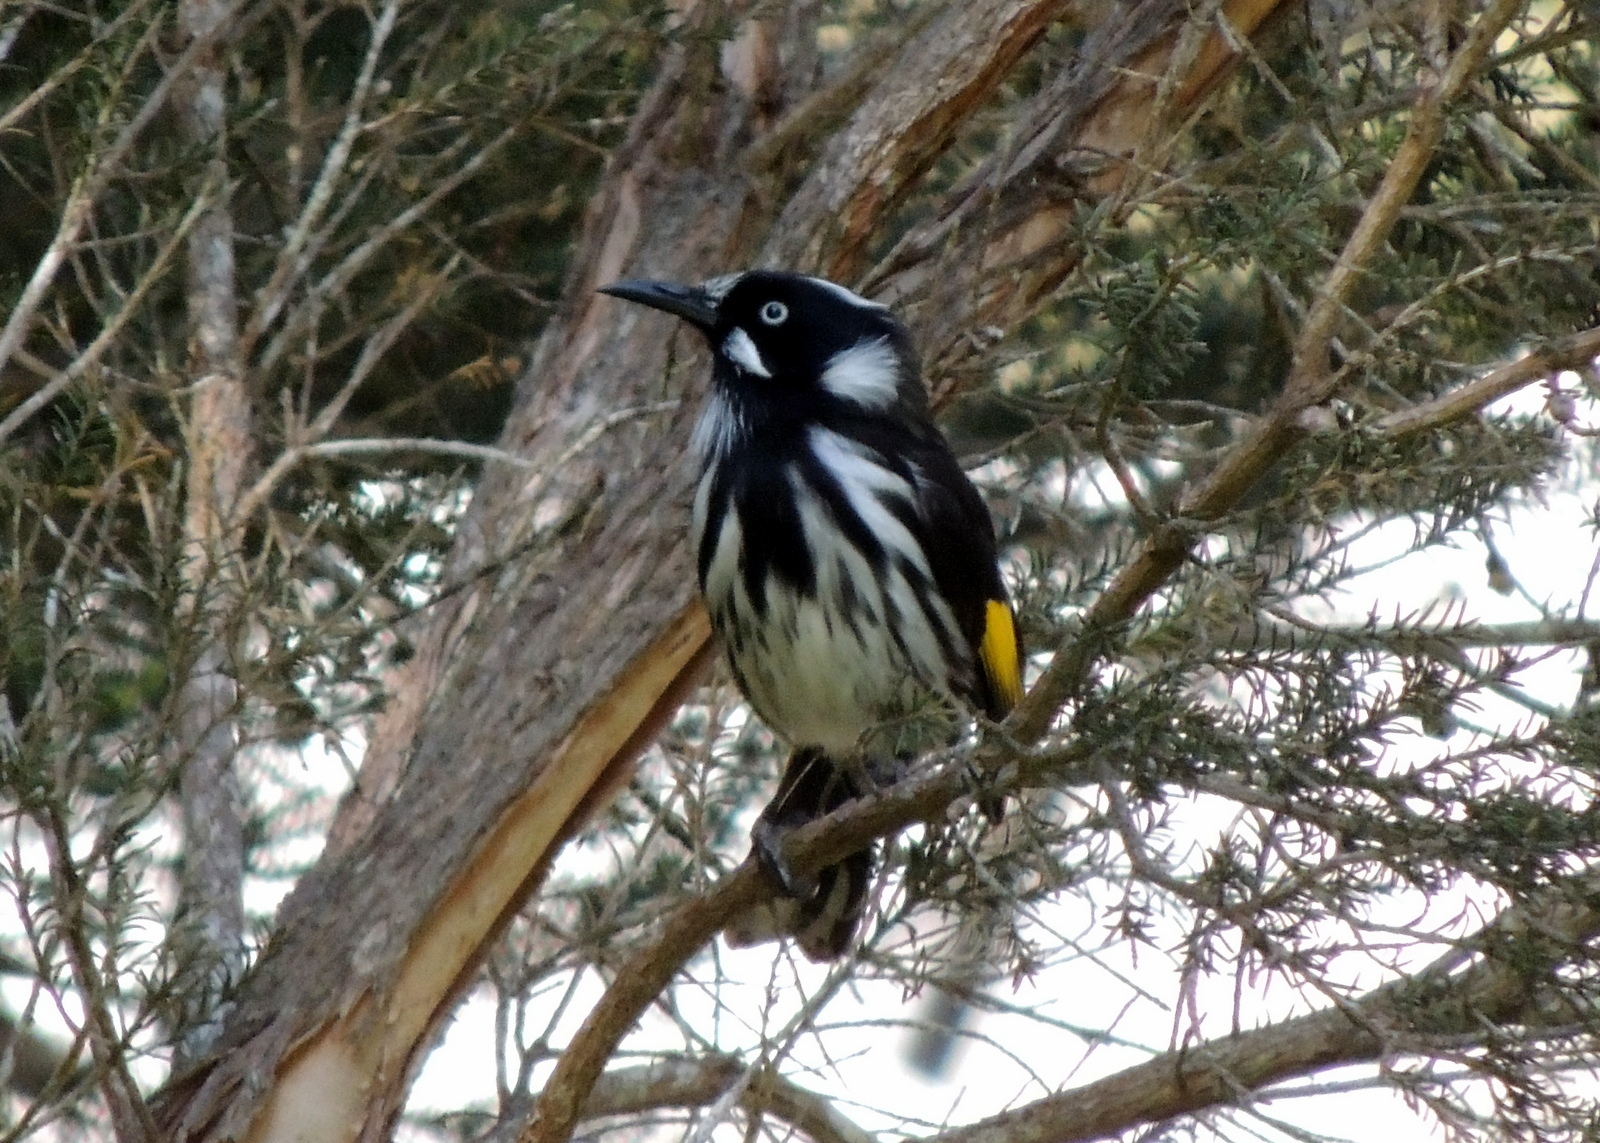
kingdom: Animalia
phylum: Chordata
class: Aves
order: Passeriformes
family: Meliphagidae
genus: Phylidonyris
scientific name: Phylidonyris novaehollandiae
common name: New holland honeyeater
